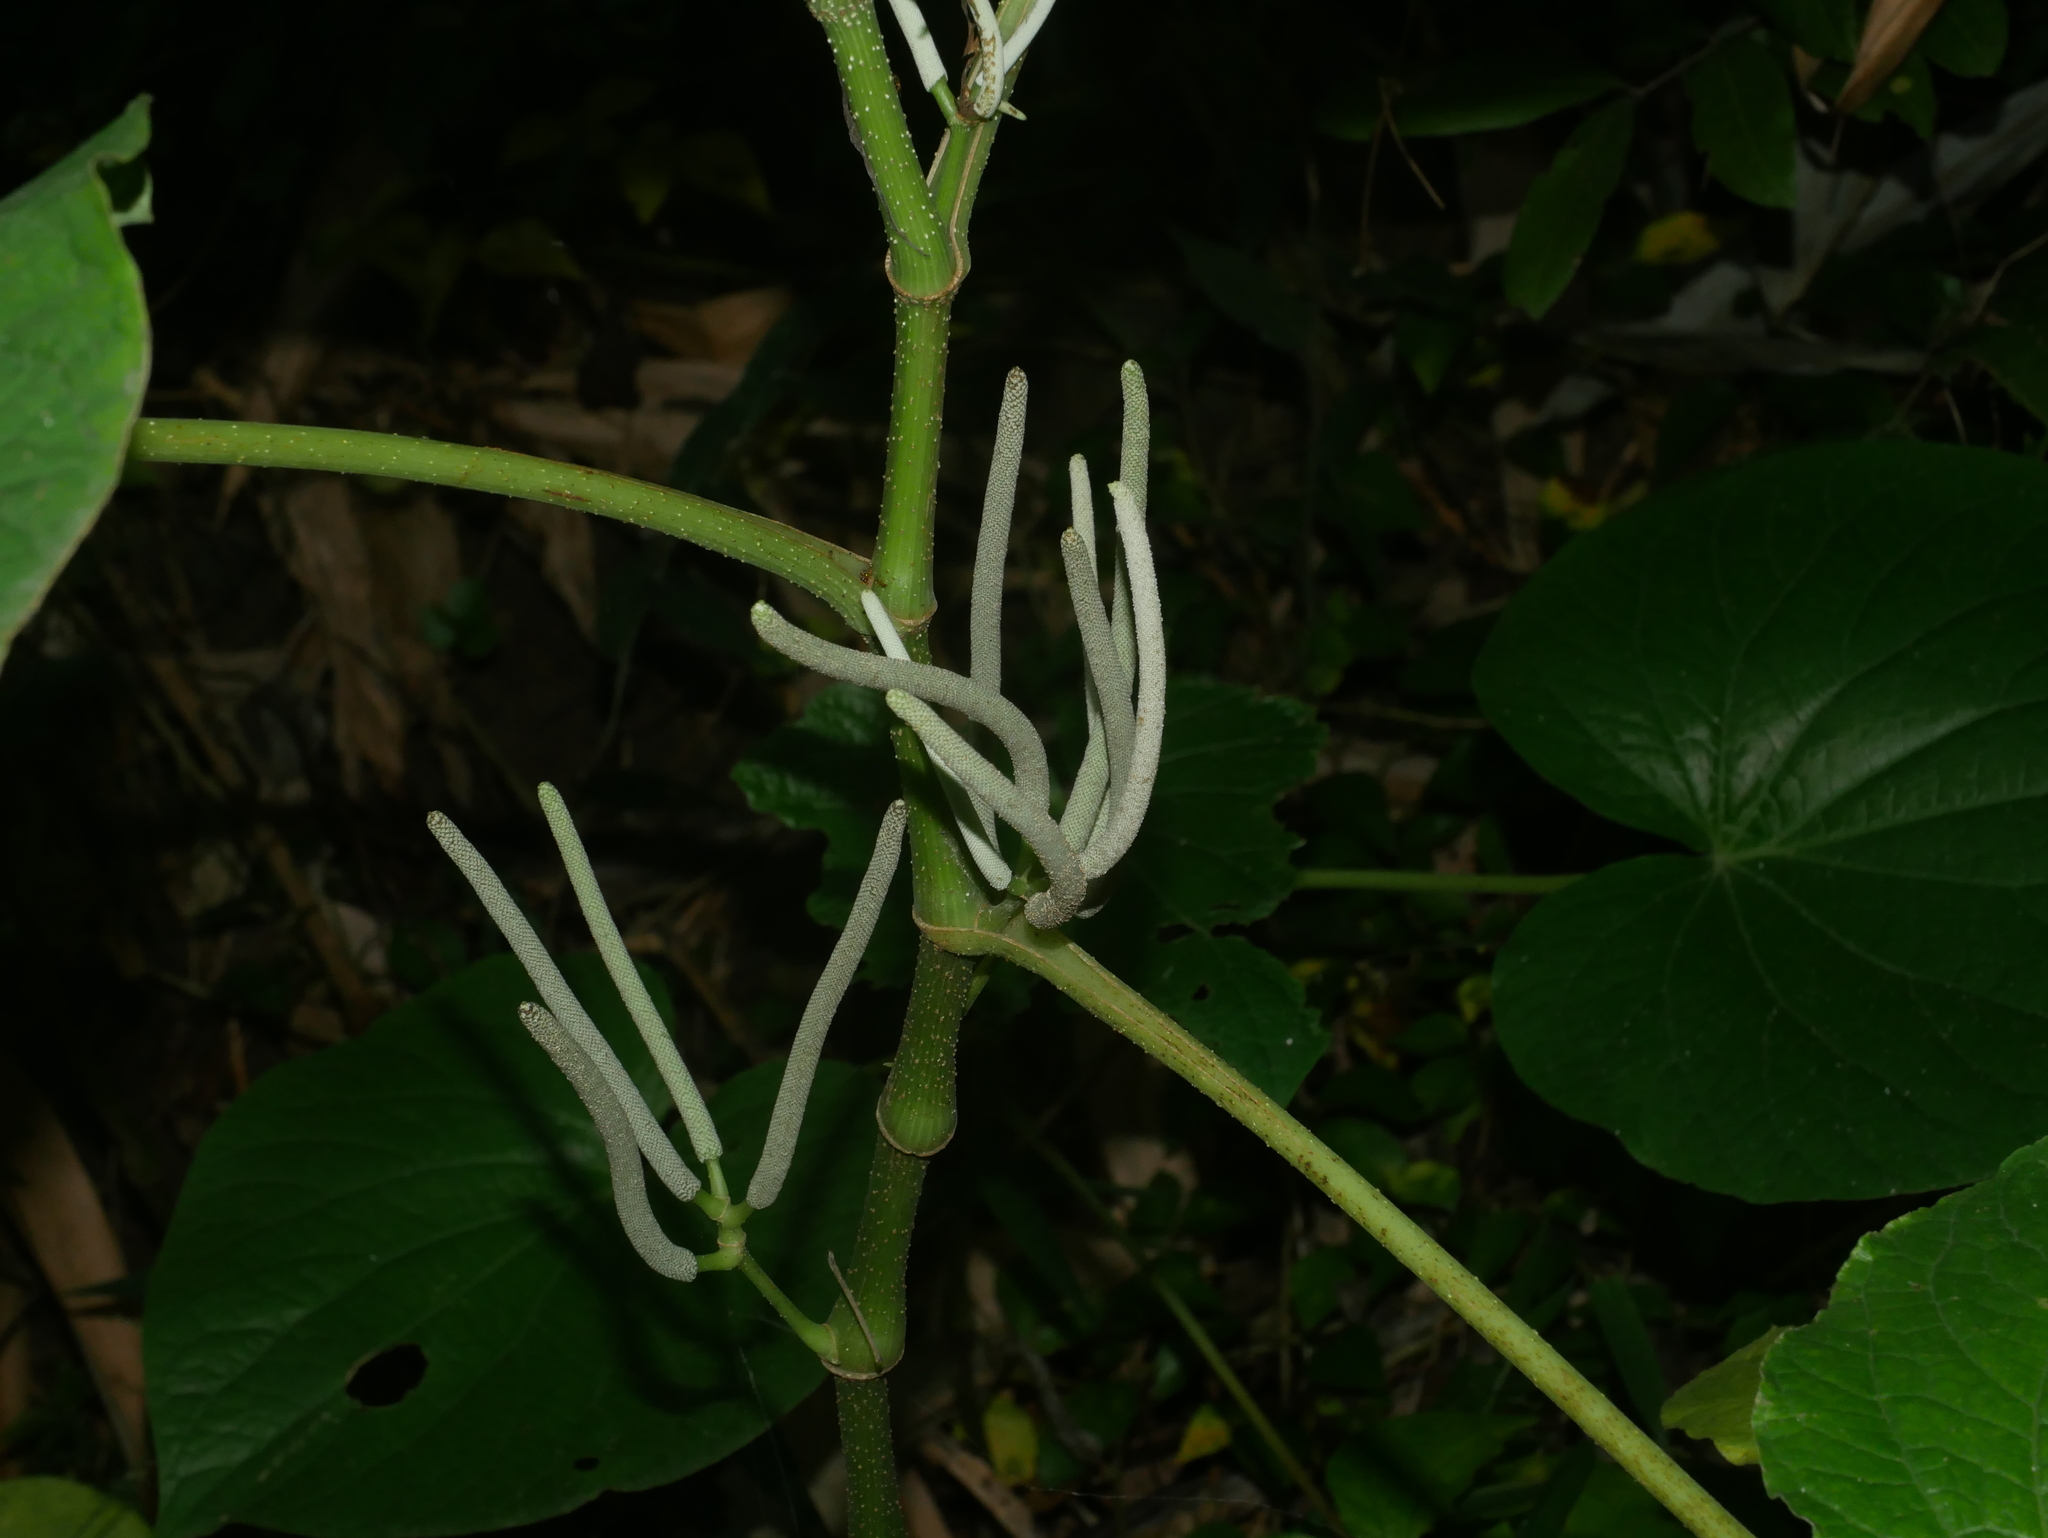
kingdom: Plantae
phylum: Tracheophyta
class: Magnoliopsida
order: Piperales
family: Piperaceae
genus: Piper
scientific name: Piper umbellatum
